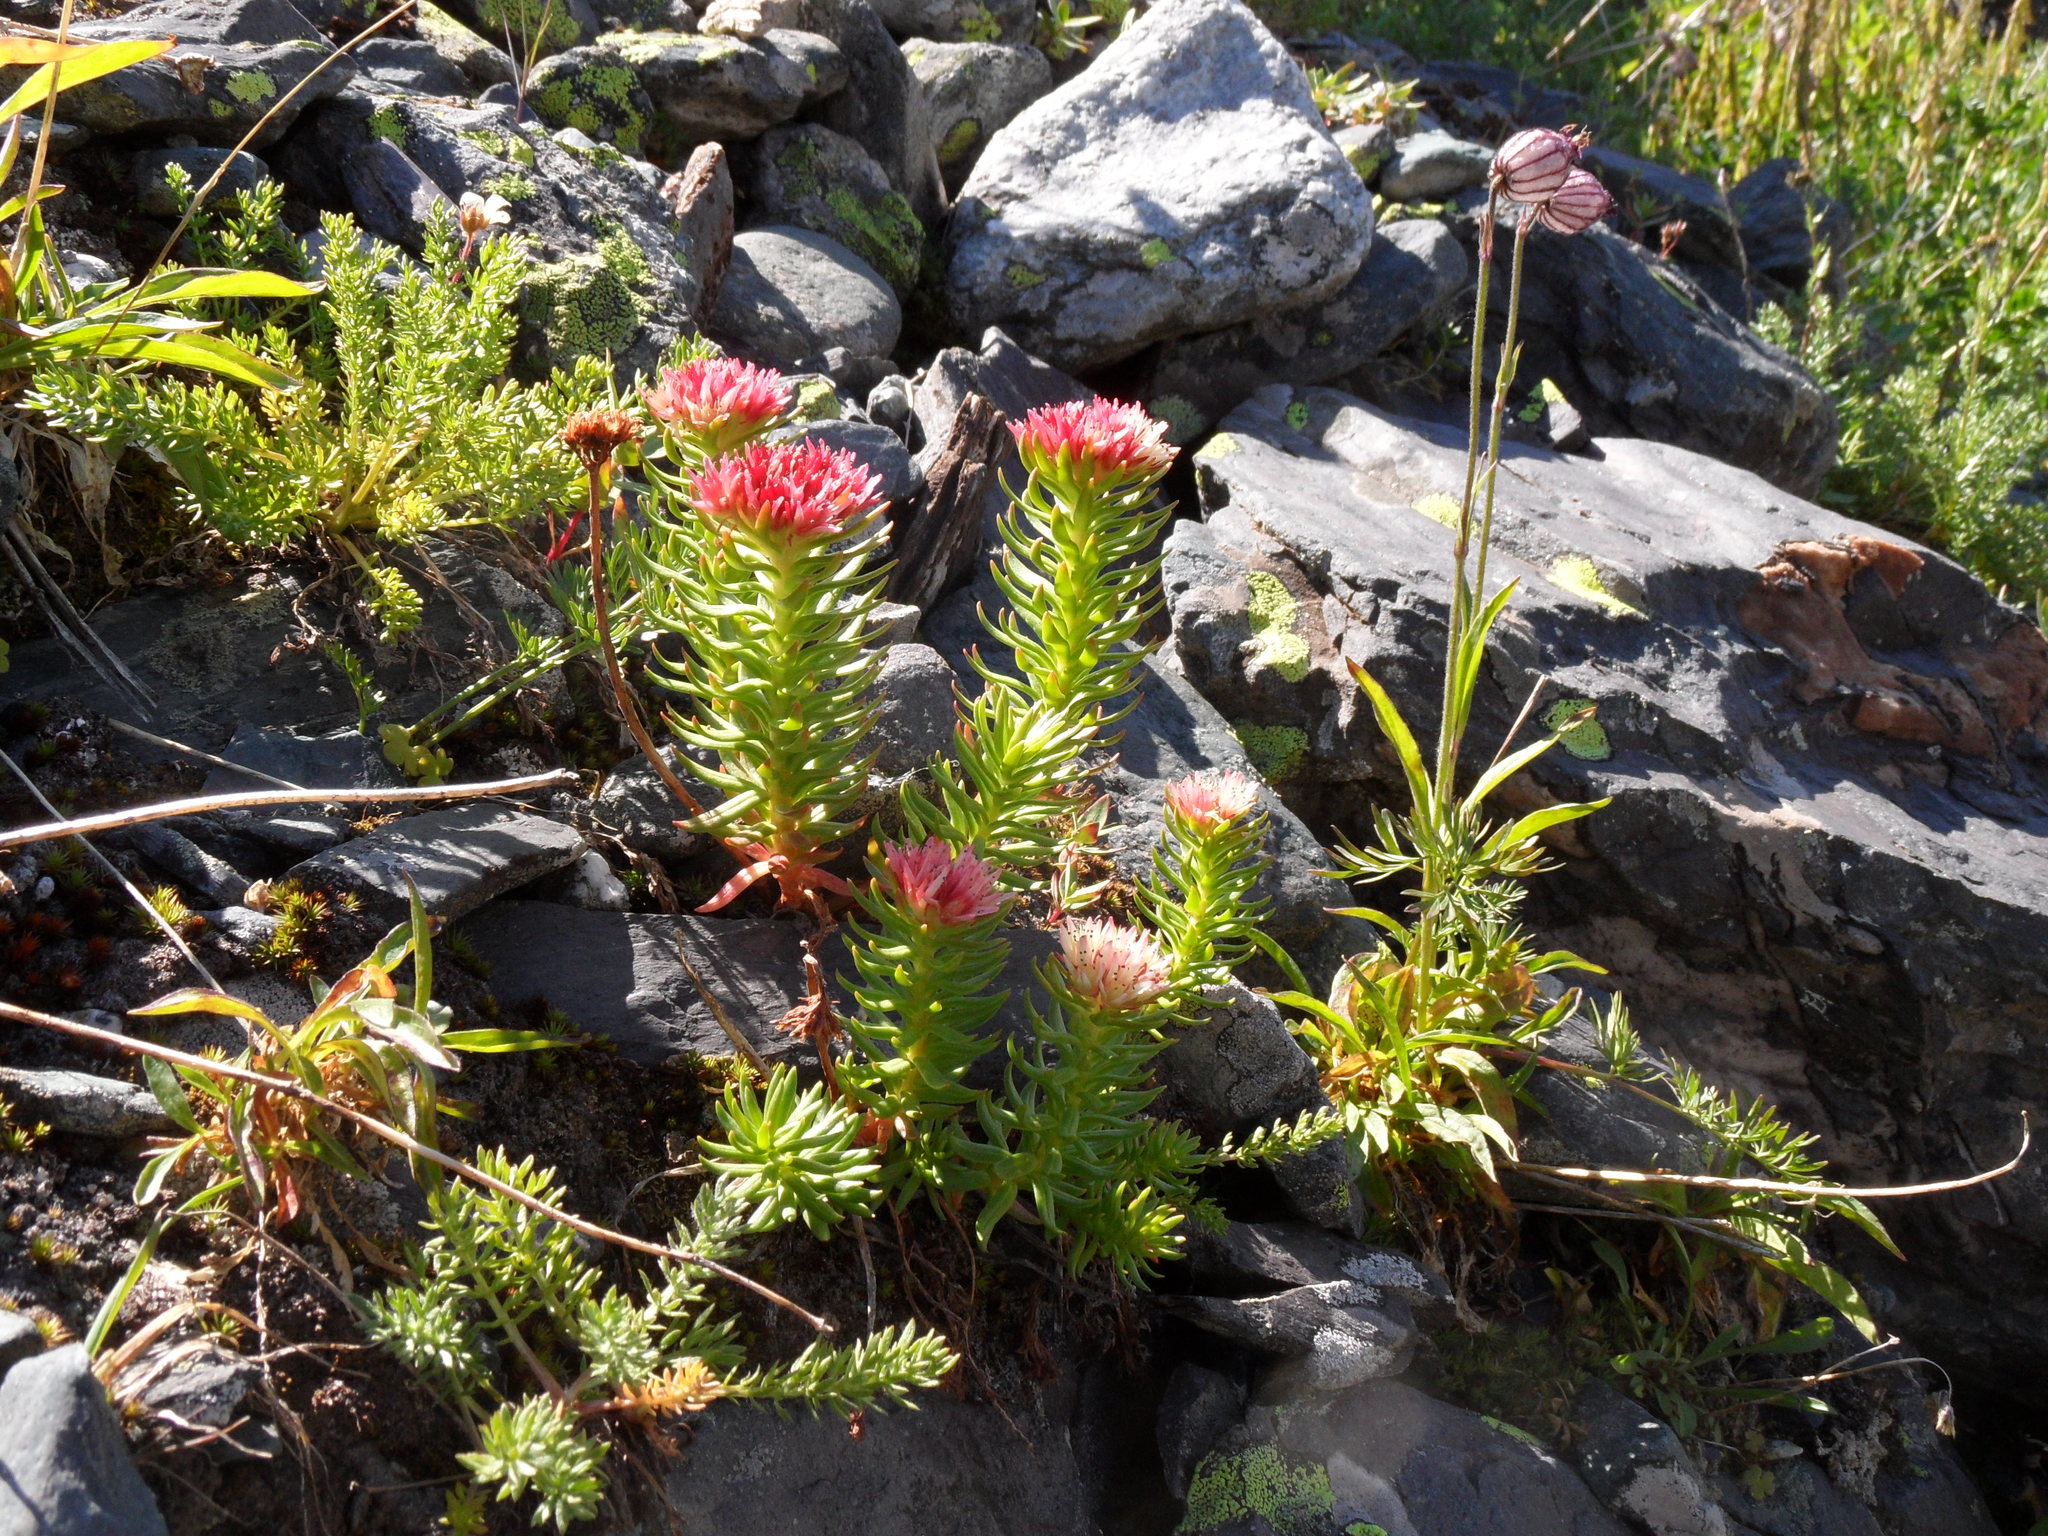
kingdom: Plantae
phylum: Tracheophyta
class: Magnoliopsida
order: Saxifragales
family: Crassulaceae
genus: Rhodiola
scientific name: Rhodiola algida
